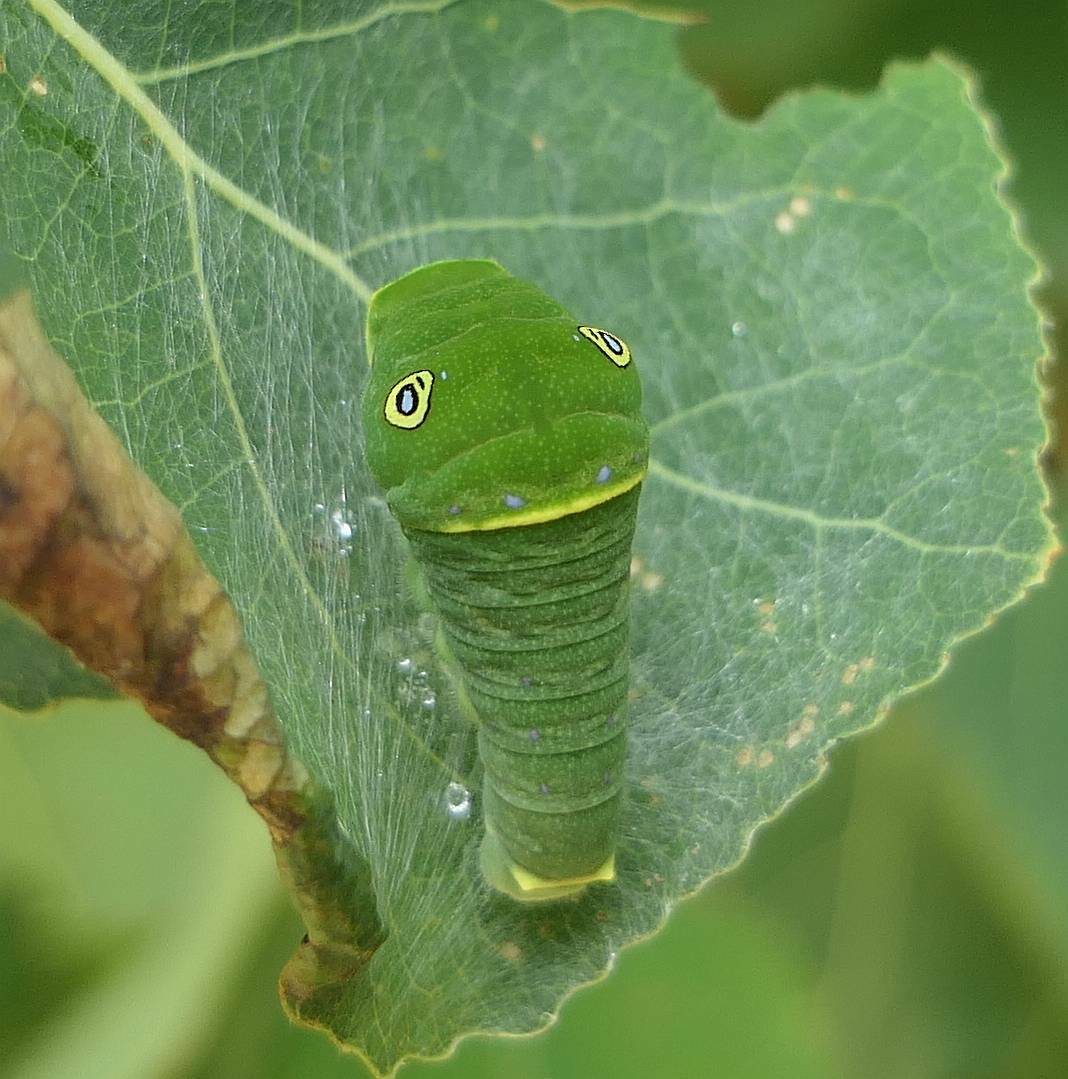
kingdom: Animalia
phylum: Arthropoda
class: Insecta
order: Lepidoptera
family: Papilionidae
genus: Papilio
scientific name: Papilio canadensis
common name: Canadian tiger swallowtail
